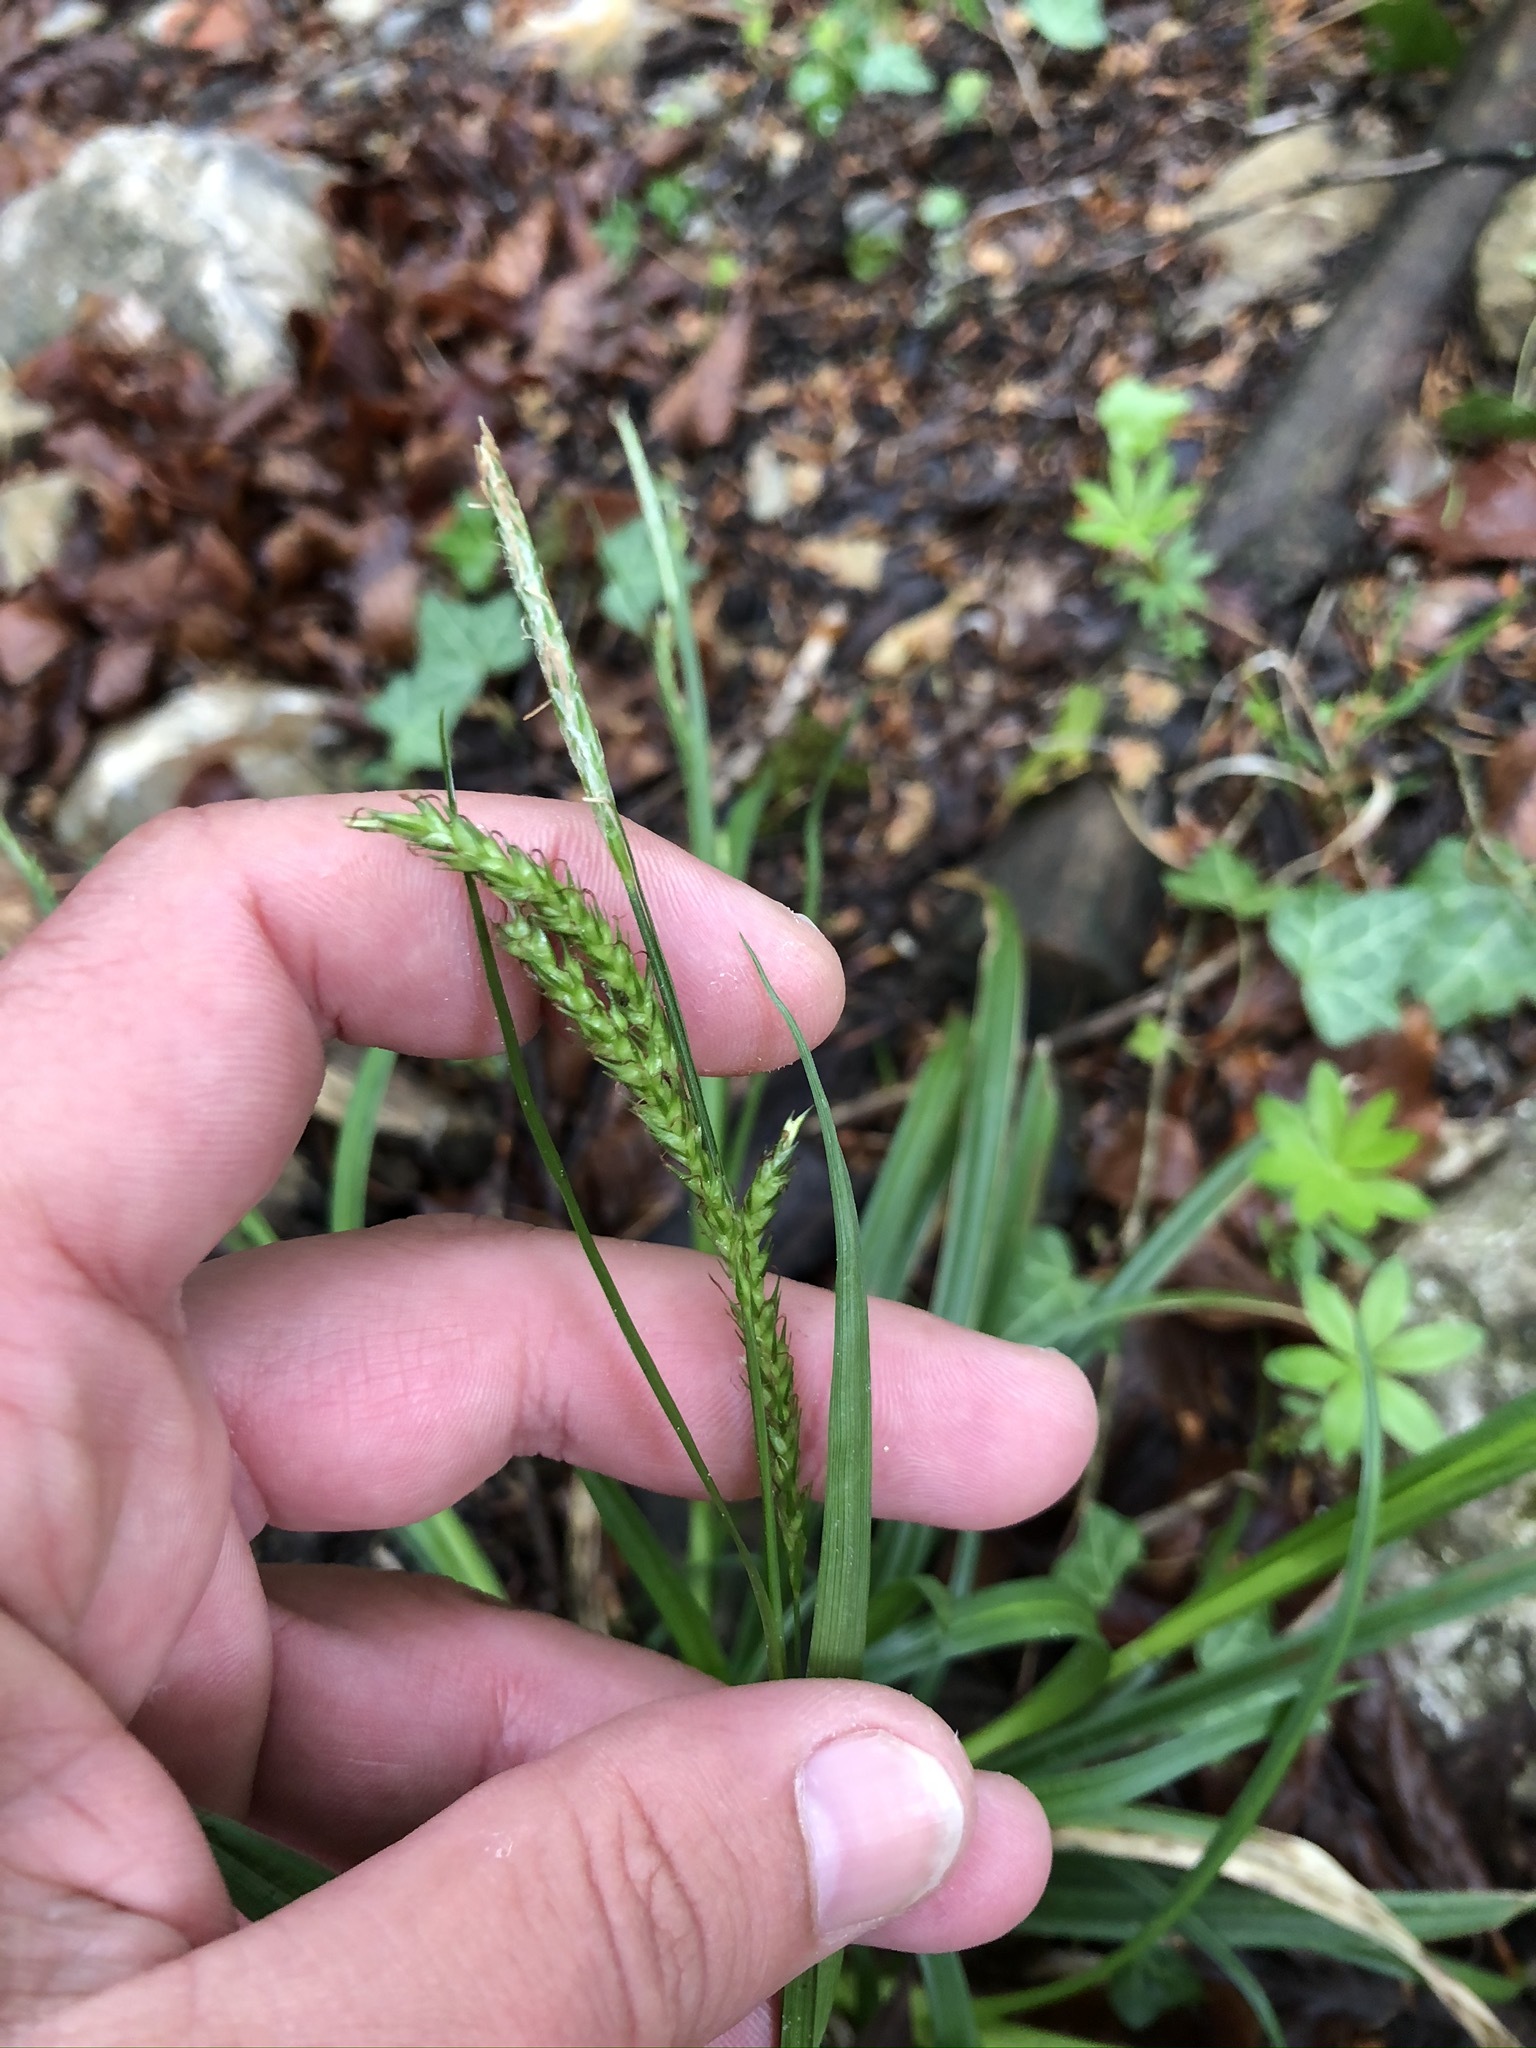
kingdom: Plantae
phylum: Tracheophyta
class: Liliopsida
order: Poales
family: Cyperaceae
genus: Carex
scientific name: Carex sylvatica
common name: Wood-sedge
